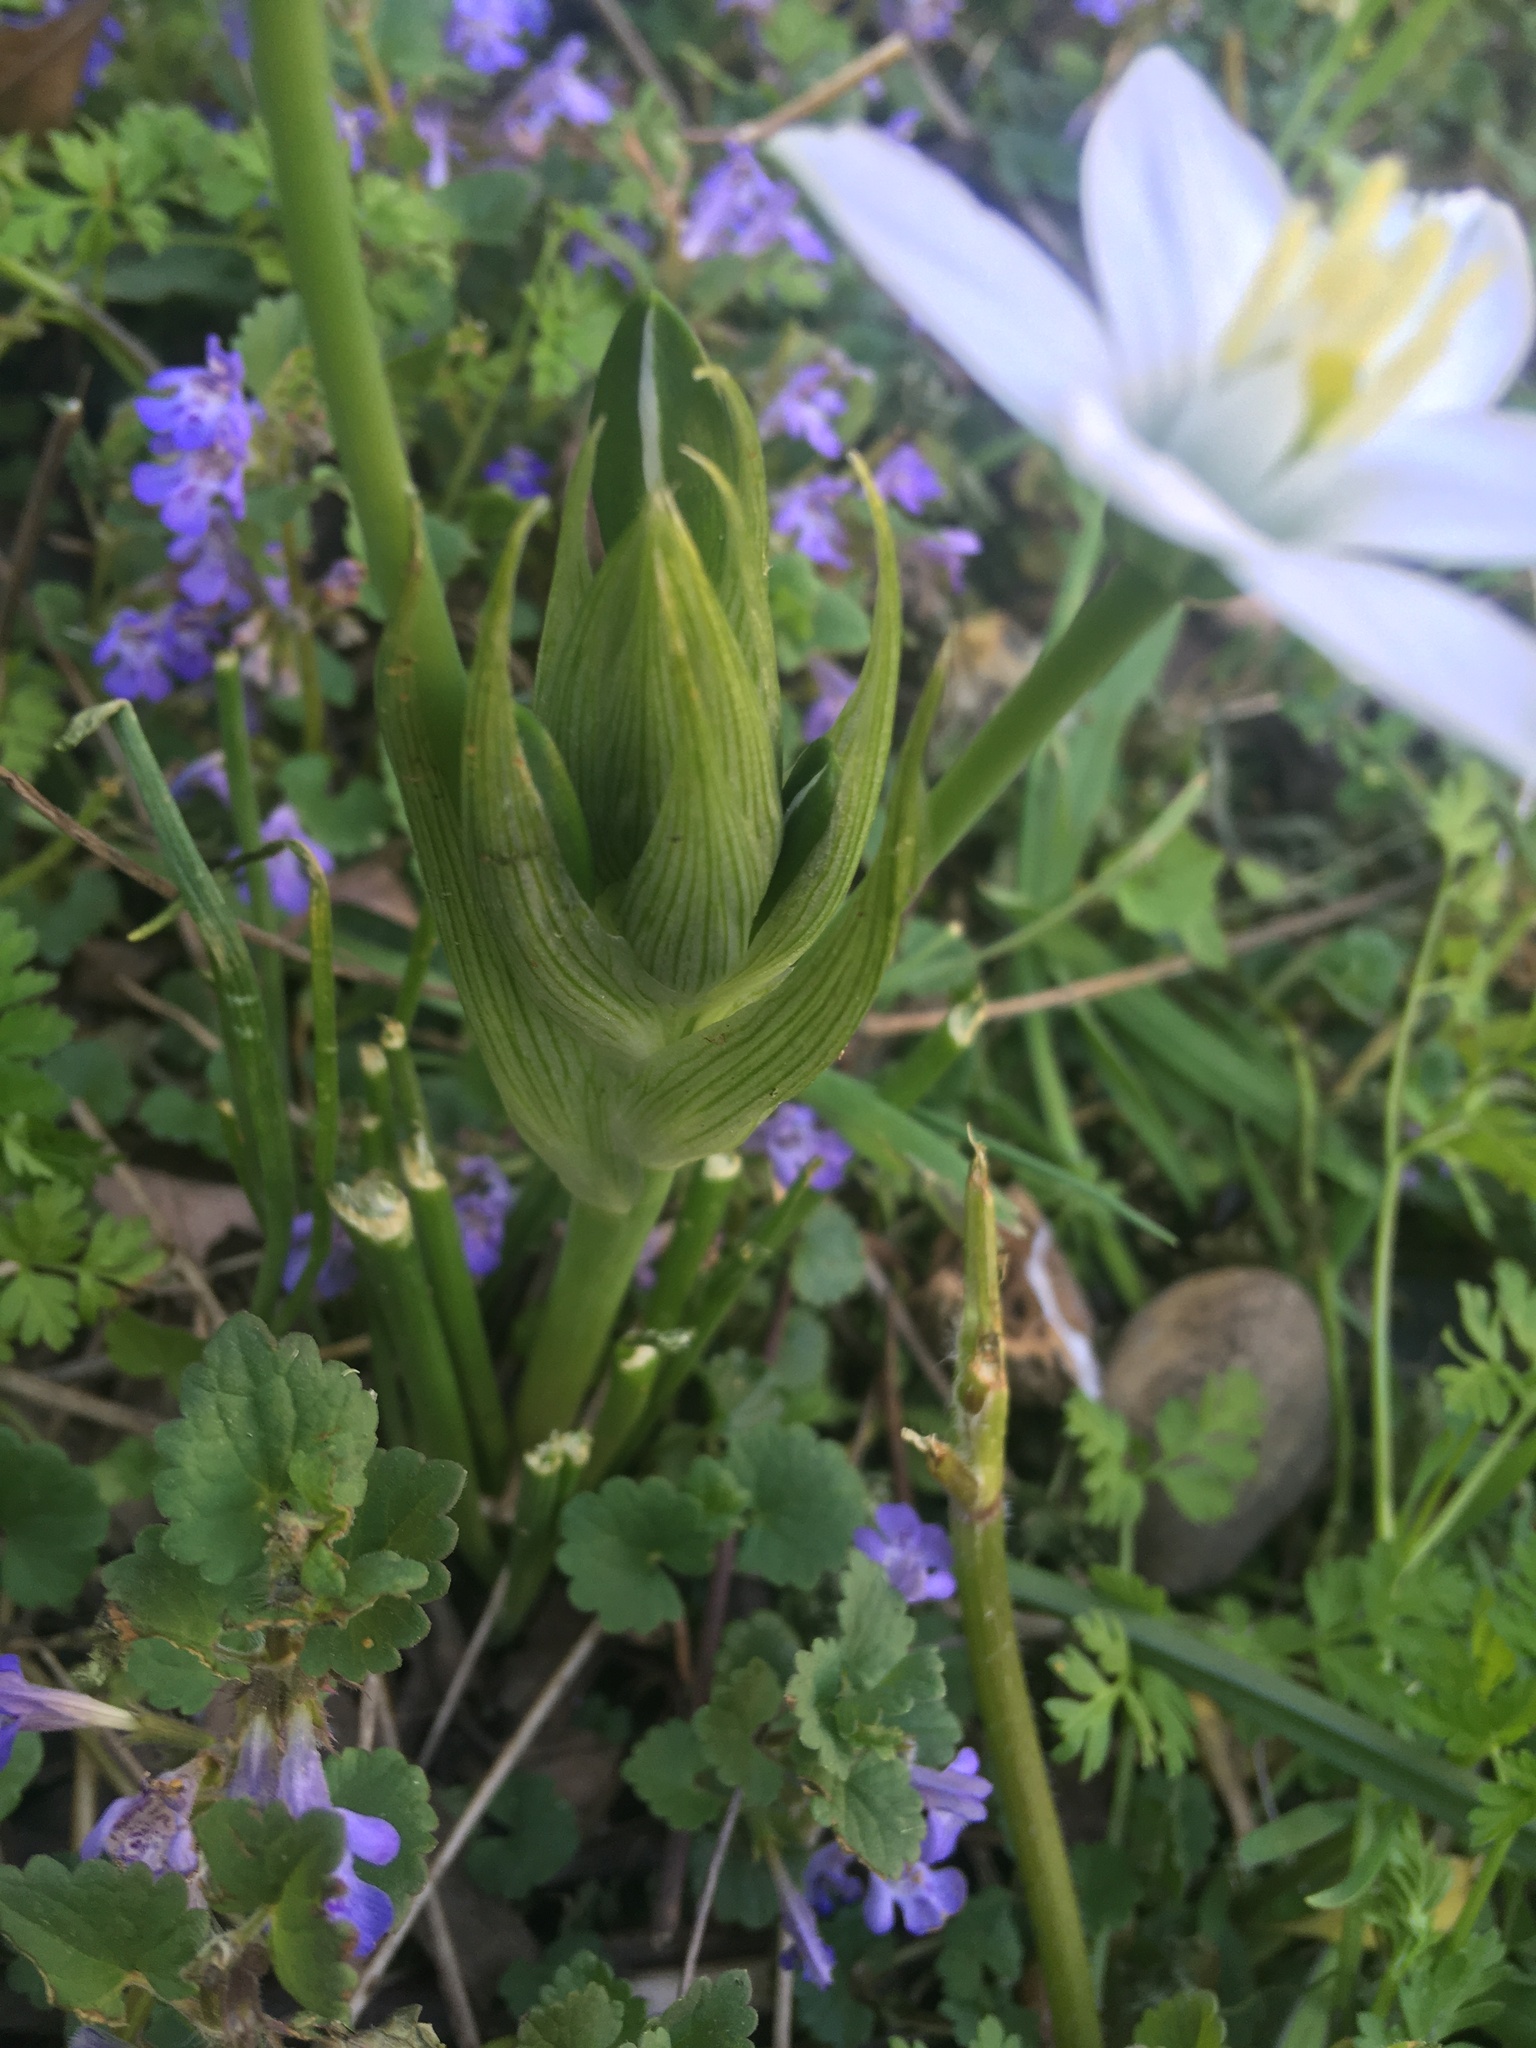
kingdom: Plantae
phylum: Tracheophyta
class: Liliopsida
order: Asparagales
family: Asparagaceae
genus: Ornithogalum
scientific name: Ornithogalum umbellatum
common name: Garden star-of-bethlehem
